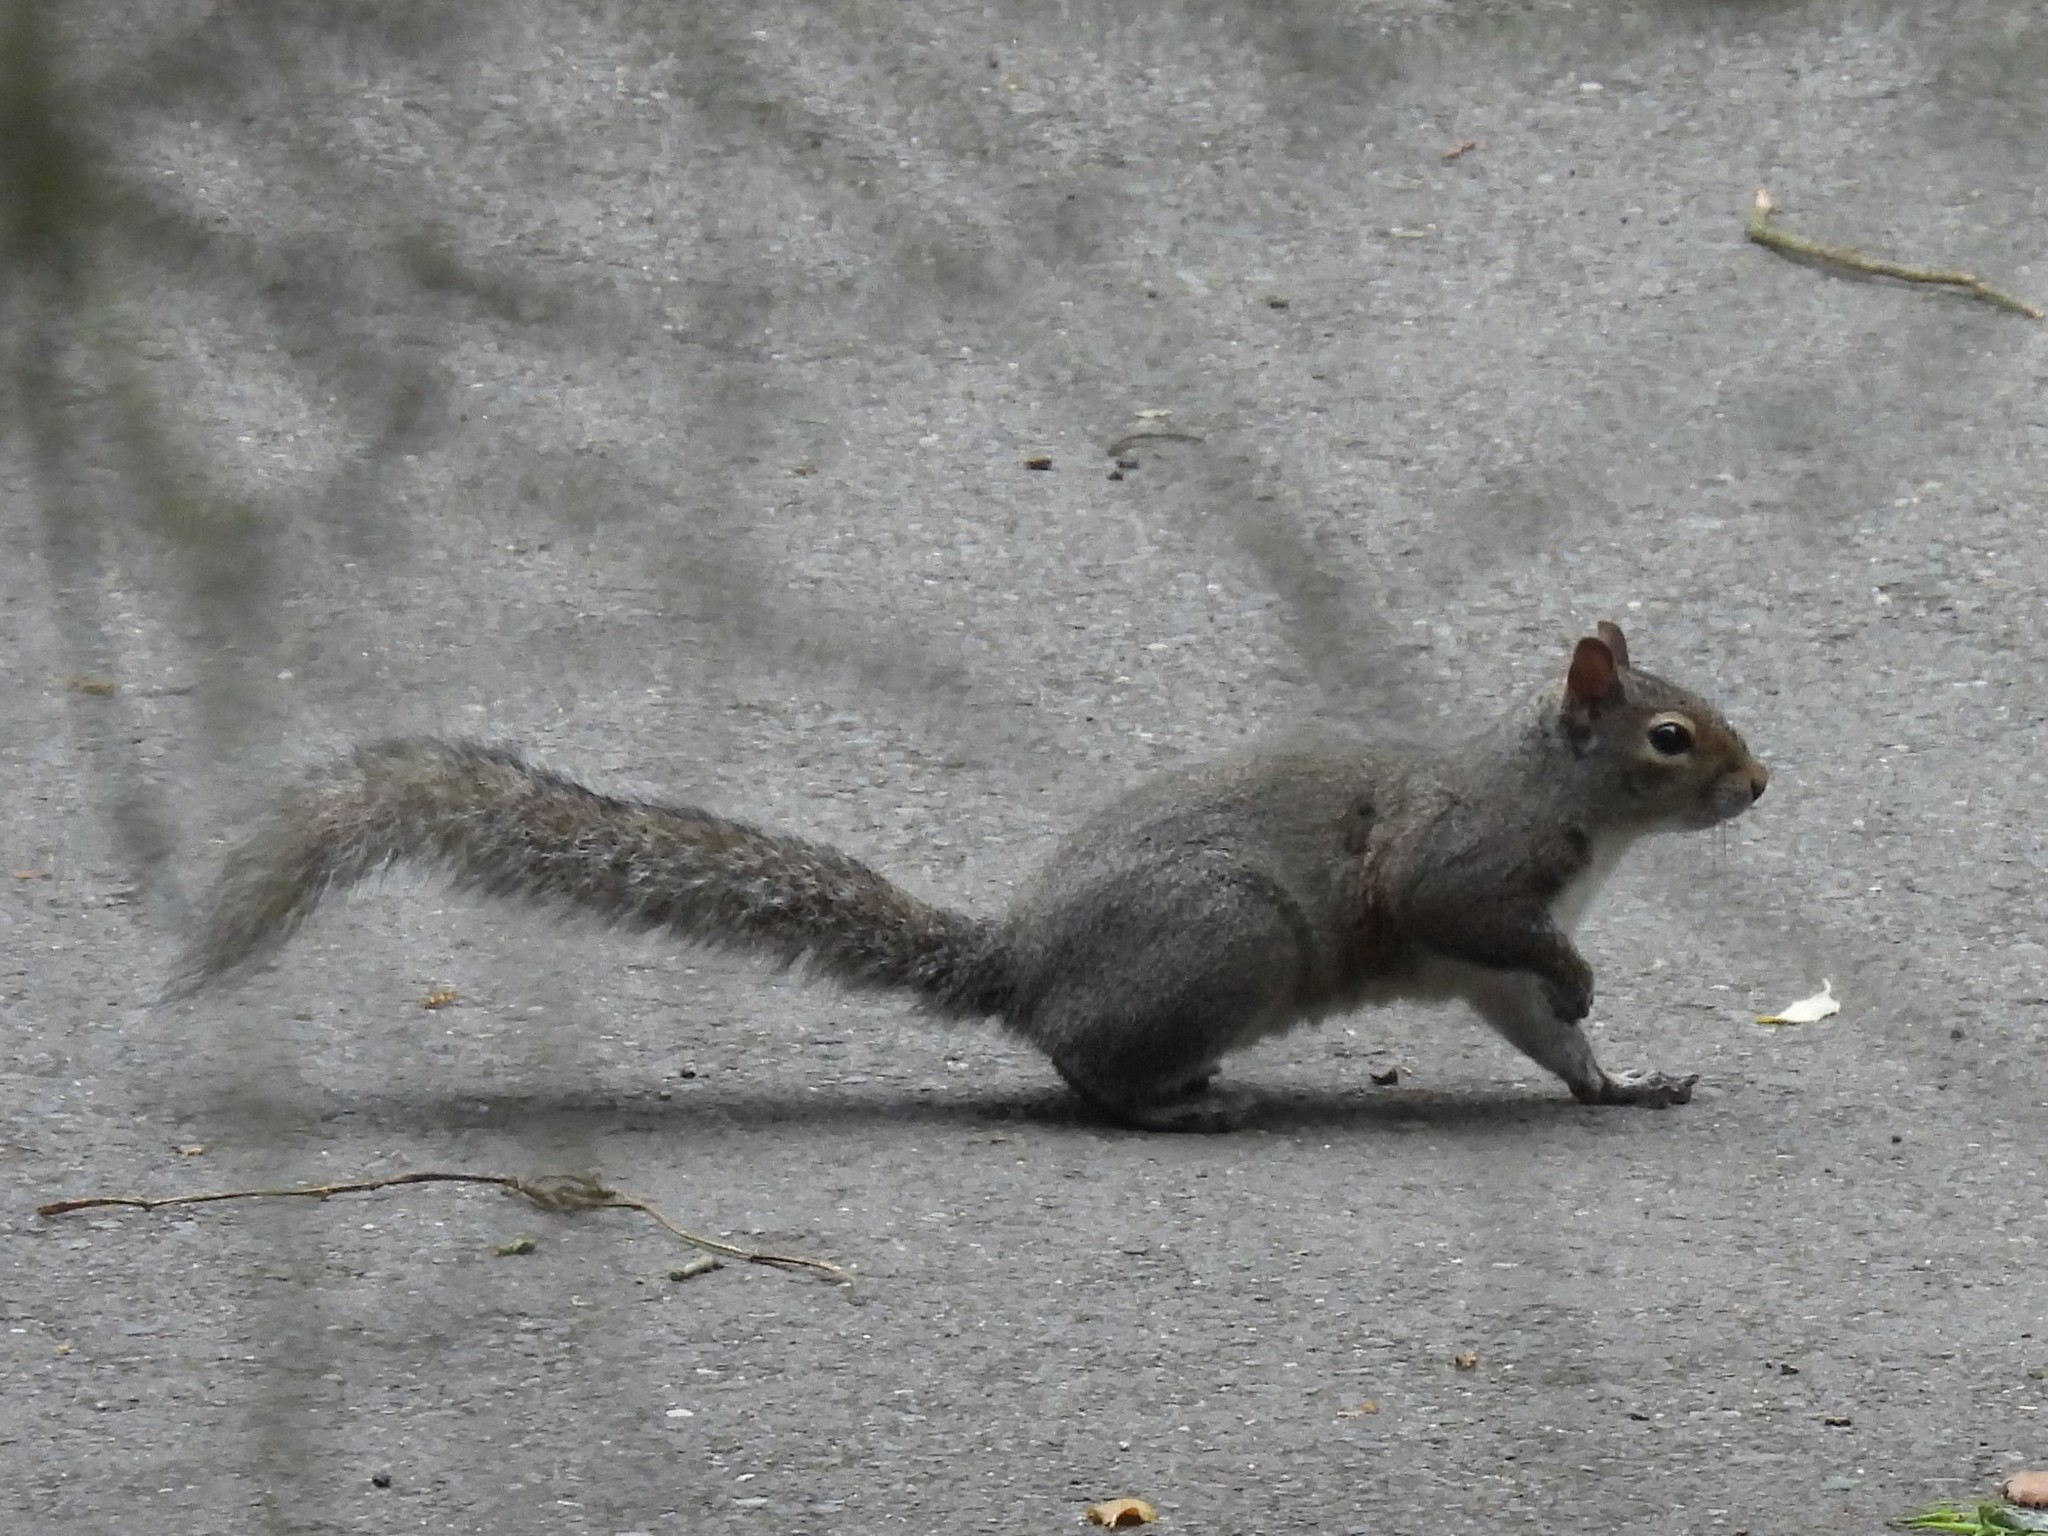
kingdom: Animalia
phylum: Chordata
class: Mammalia
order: Rodentia
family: Sciuridae
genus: Sciurus
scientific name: Sciurus carolinensis
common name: Eastern gray squirrel
